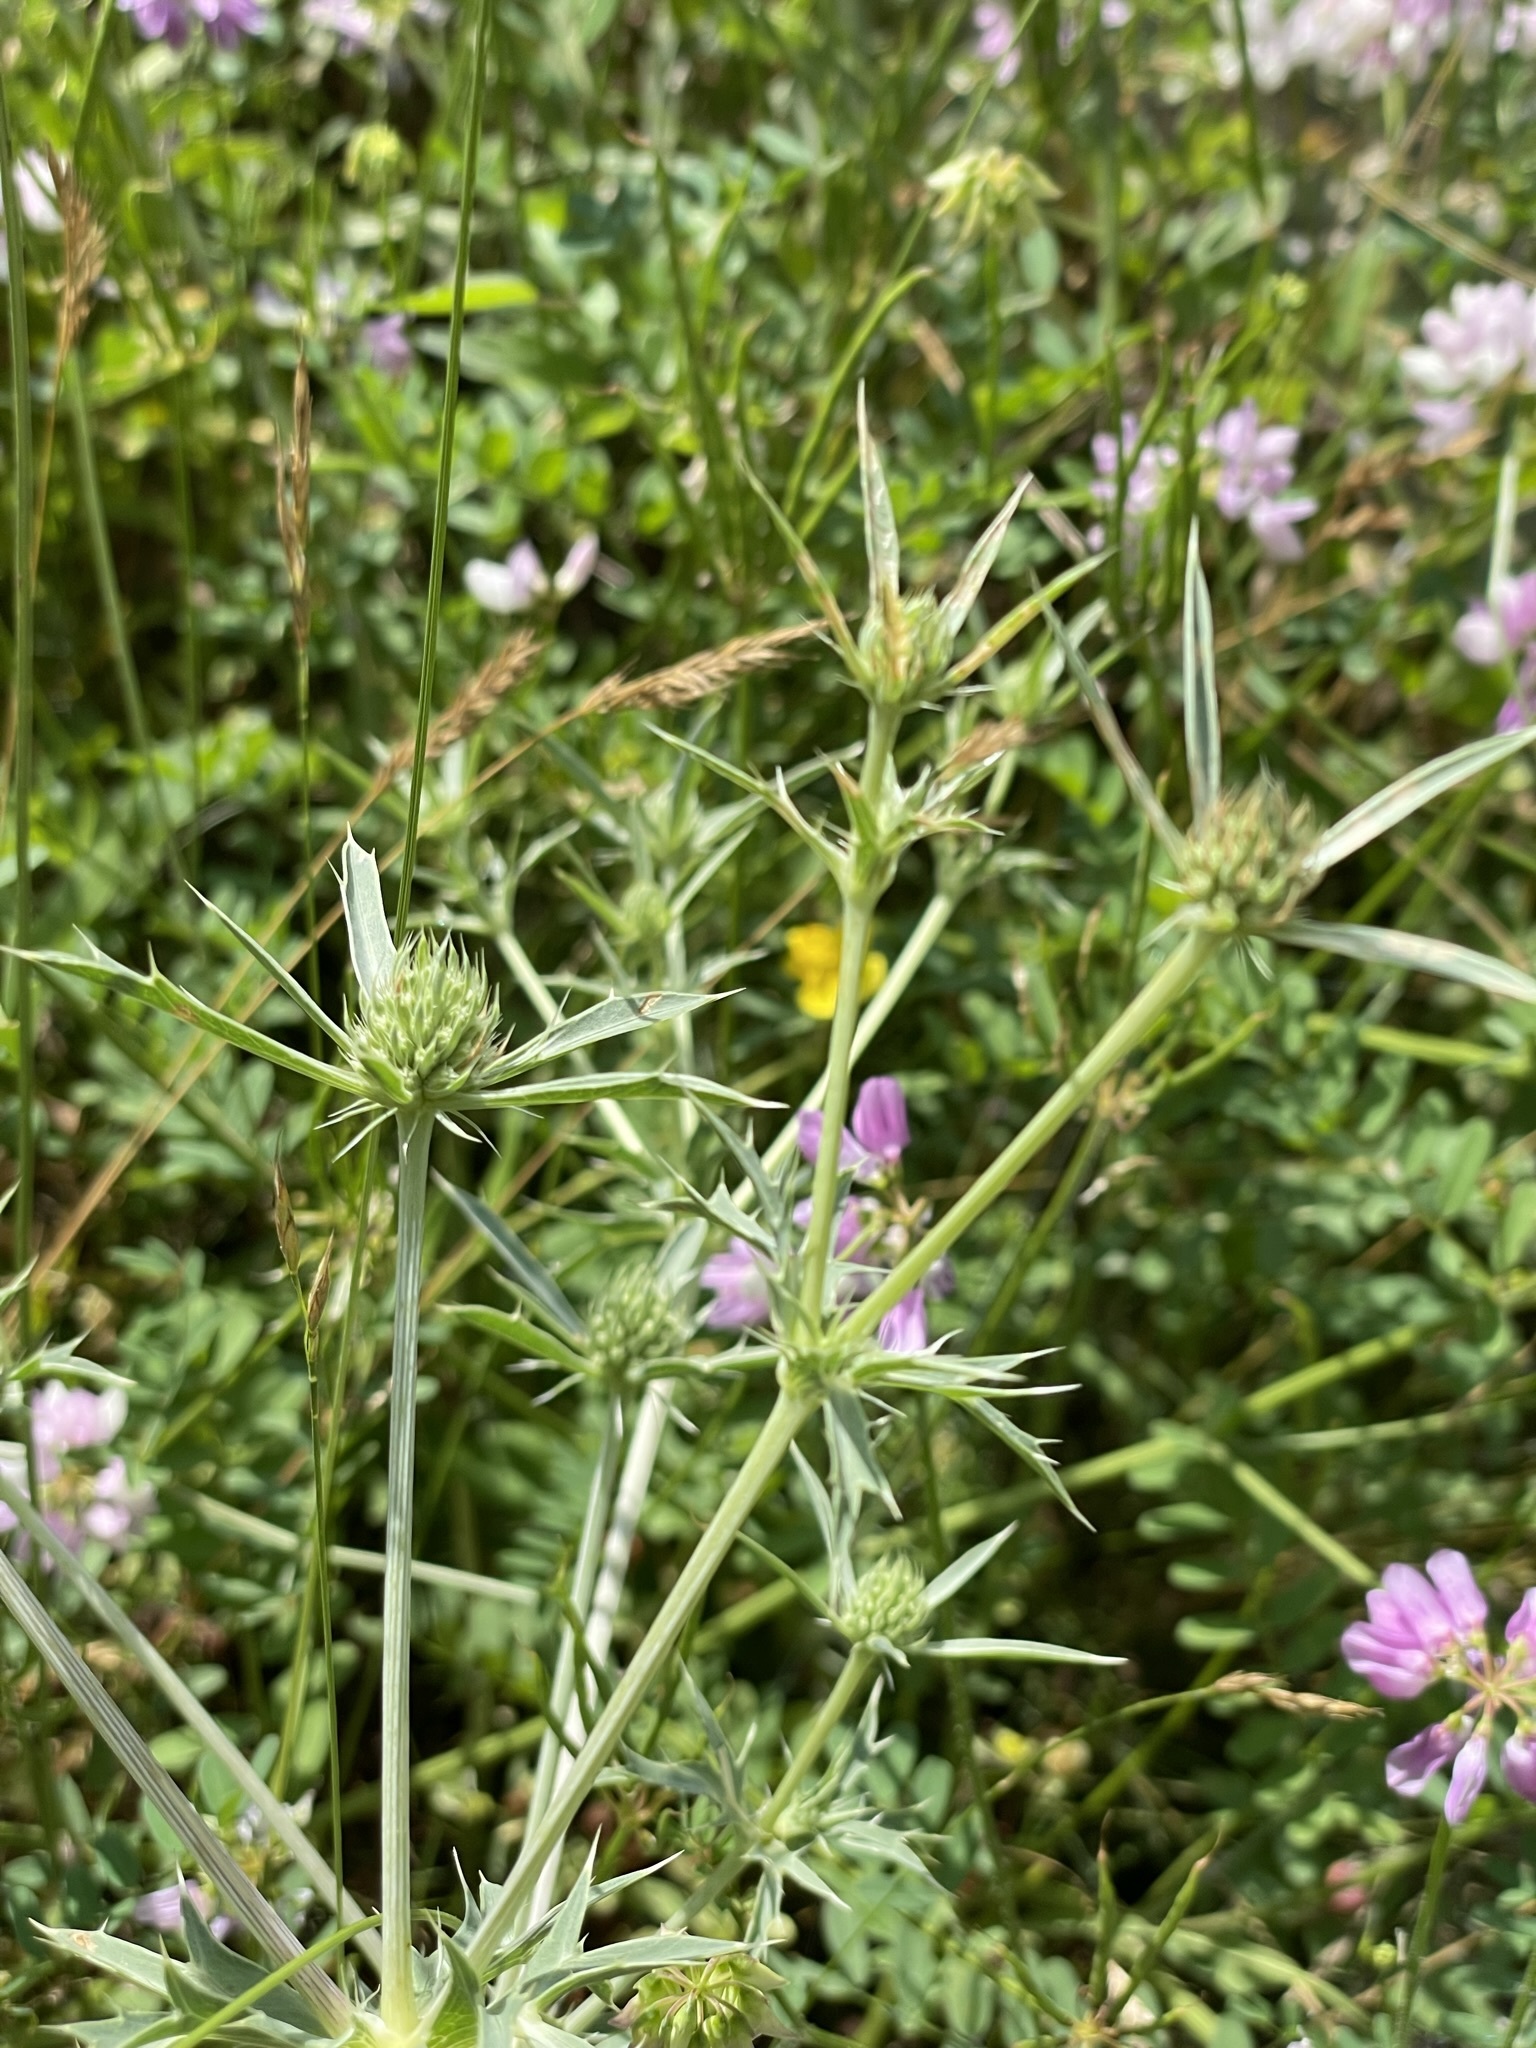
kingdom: Plantae
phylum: Tracheophyta
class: Magnoliopsida
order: Apiales
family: Apiaceae
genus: Eryngium
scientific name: Eryngium campestre
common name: Field eryngo
